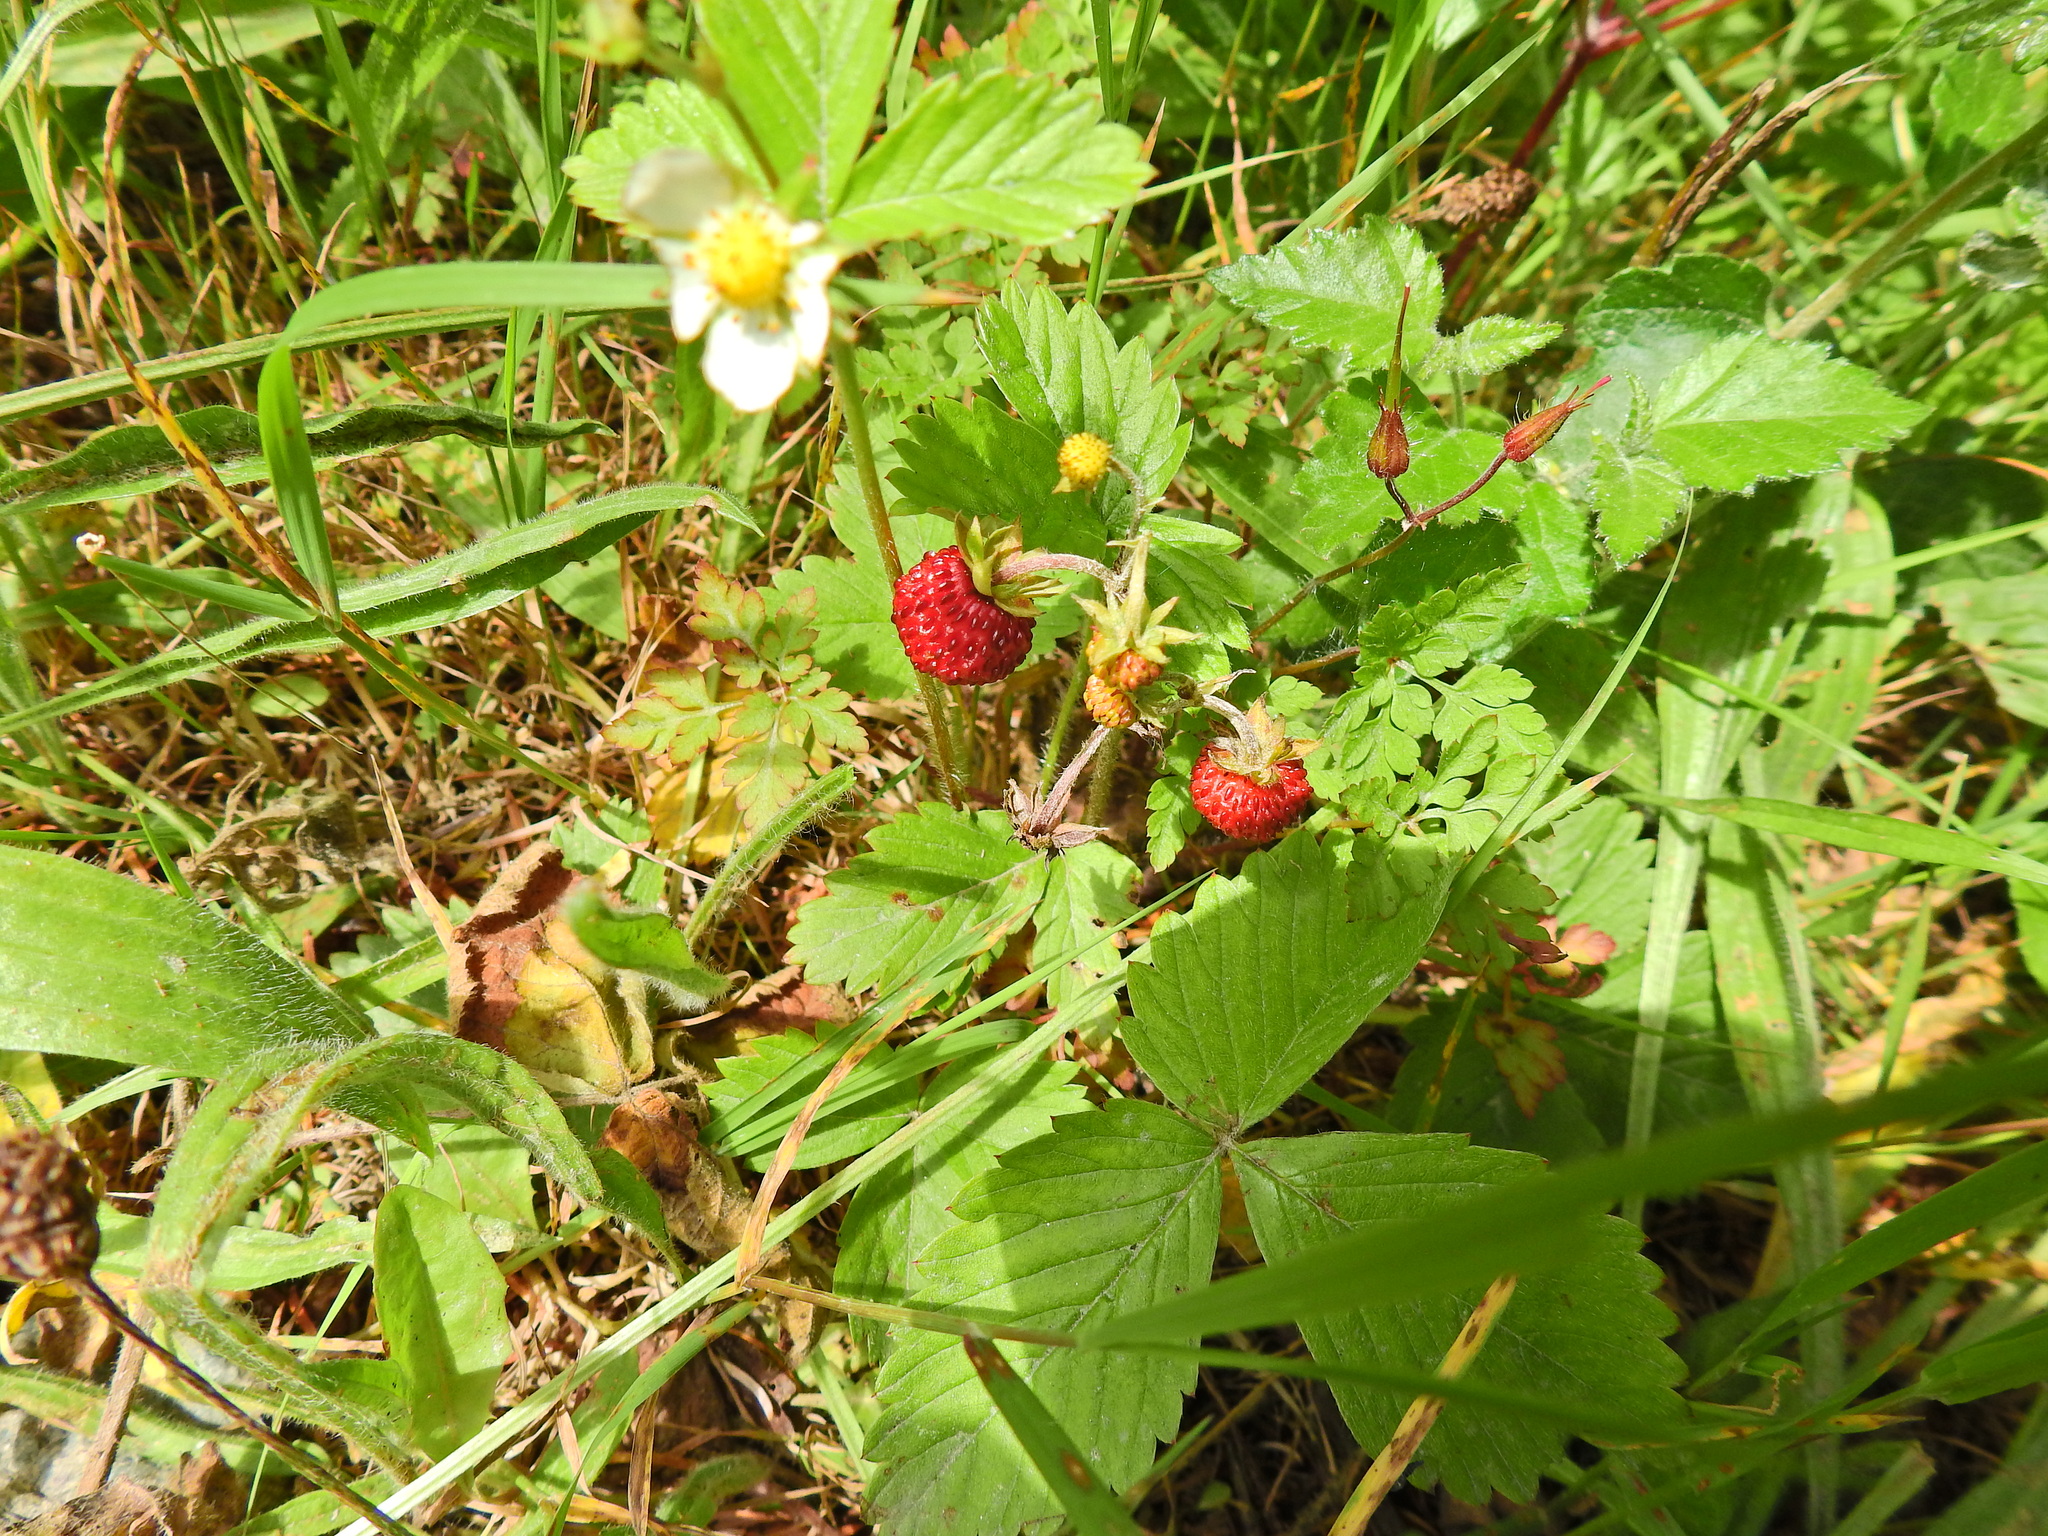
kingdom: Plantae
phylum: Tracheophyta
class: Magnoliopsida
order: Rosales
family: Rosaceae
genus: Fragaria
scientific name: Fragaria vesca
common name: Wild strawberry
